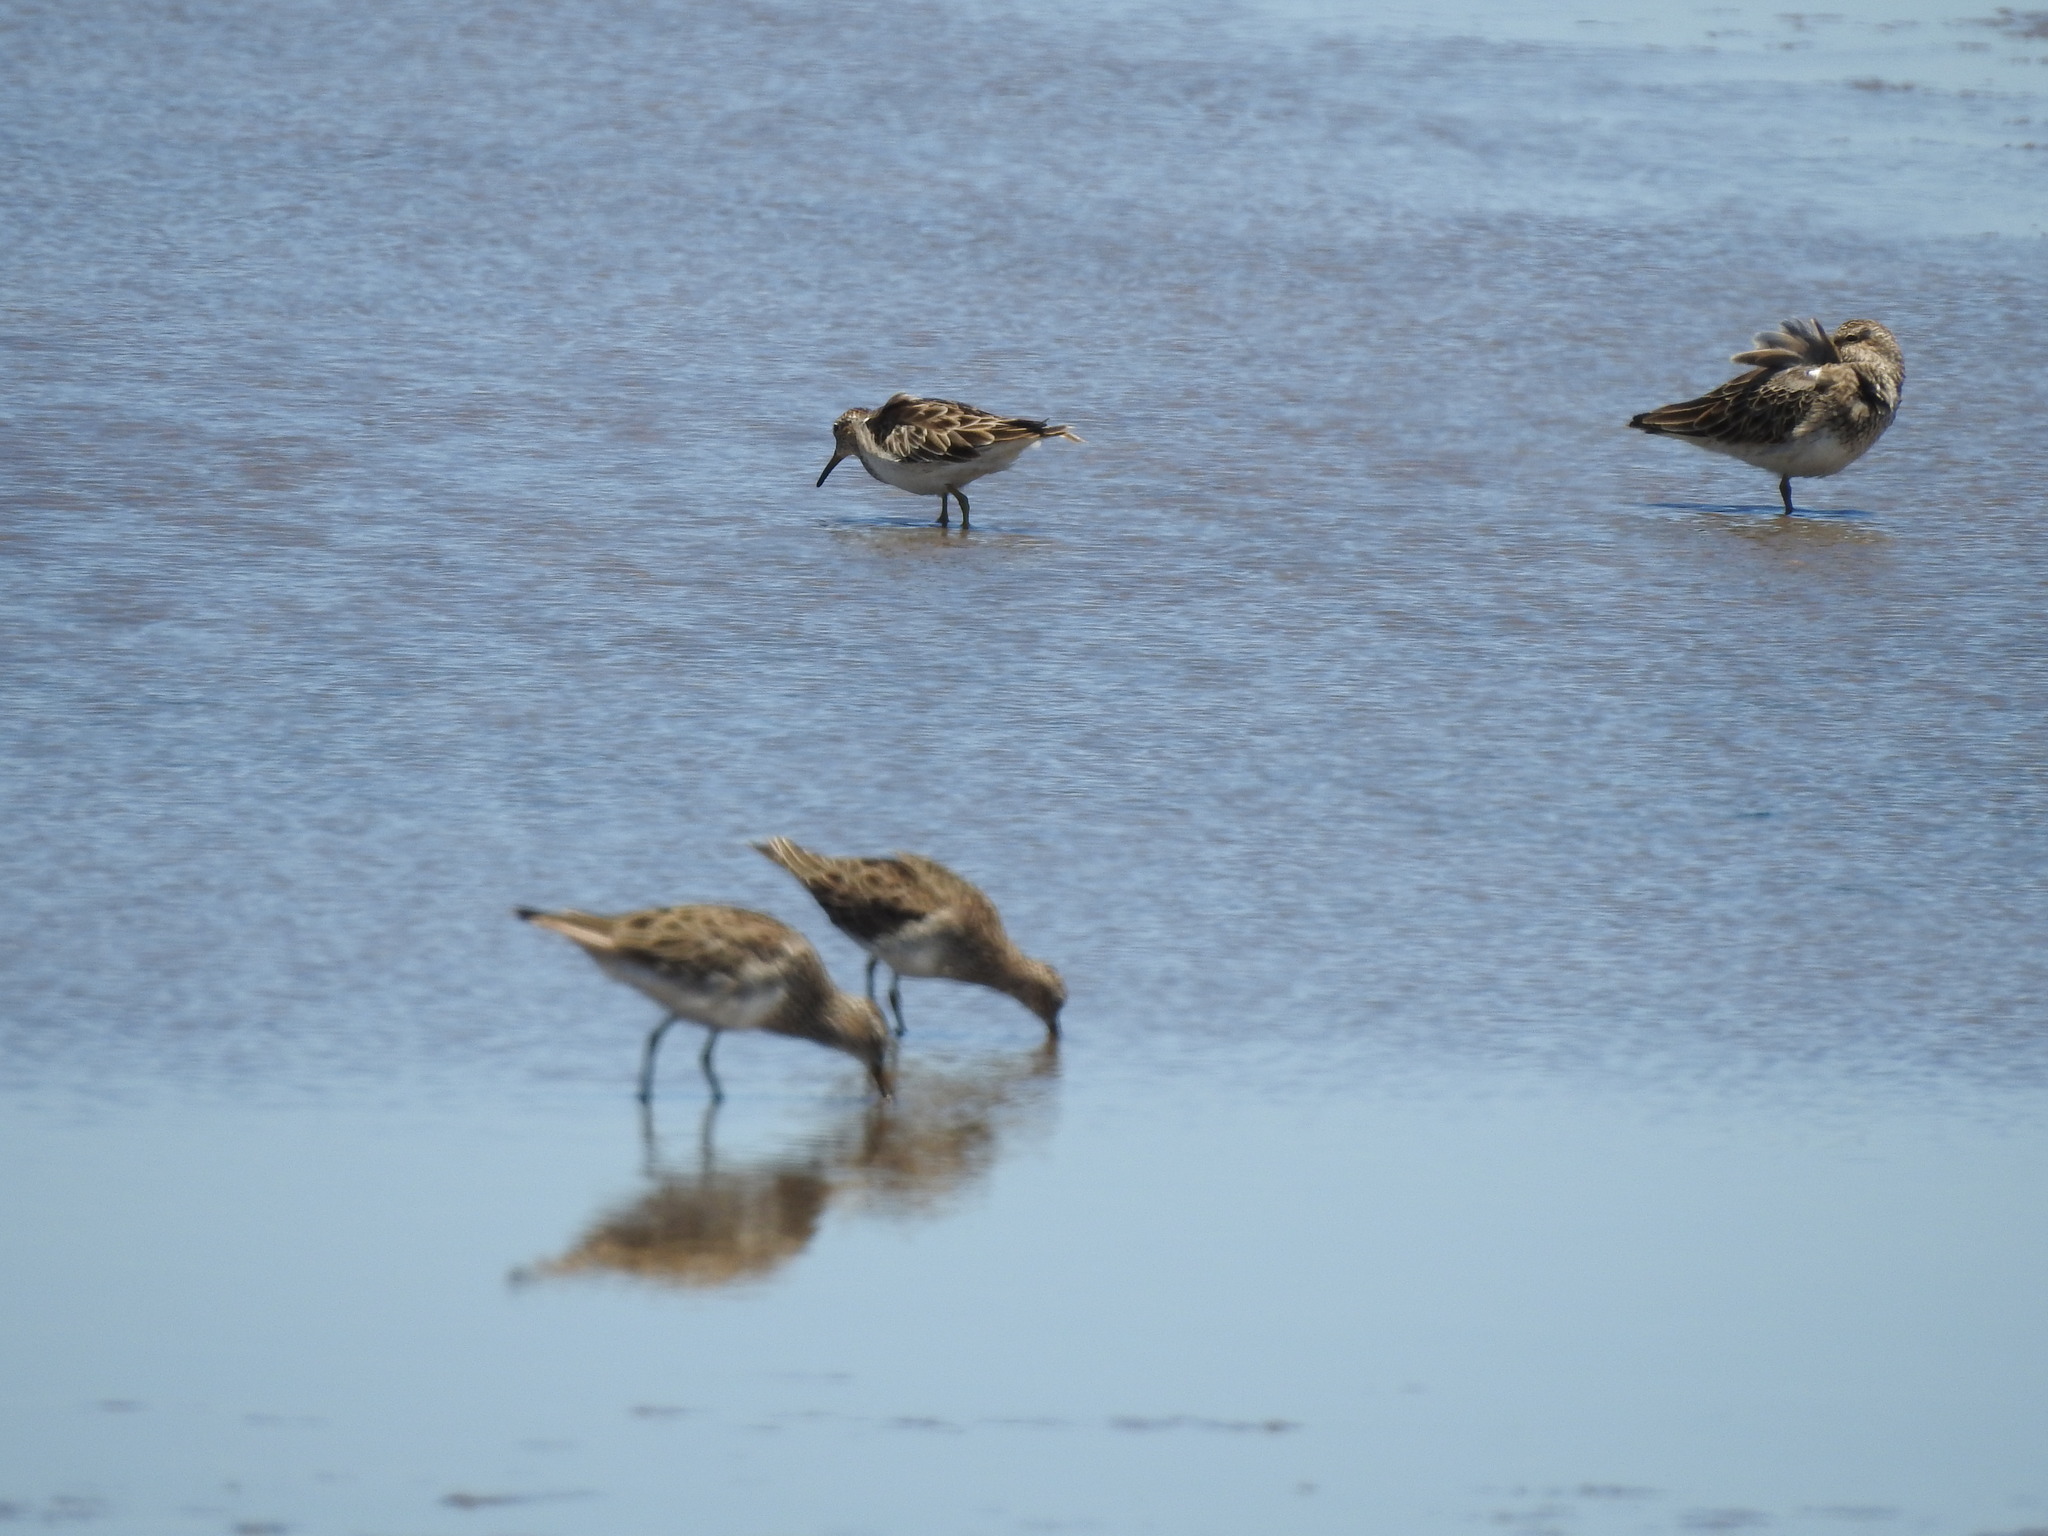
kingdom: Animalia
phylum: Chordata
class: Aves
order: Charadriiformes
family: Scolopacidae
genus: Calidris
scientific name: Calidris melanotos
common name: Pectoral sandpiper
